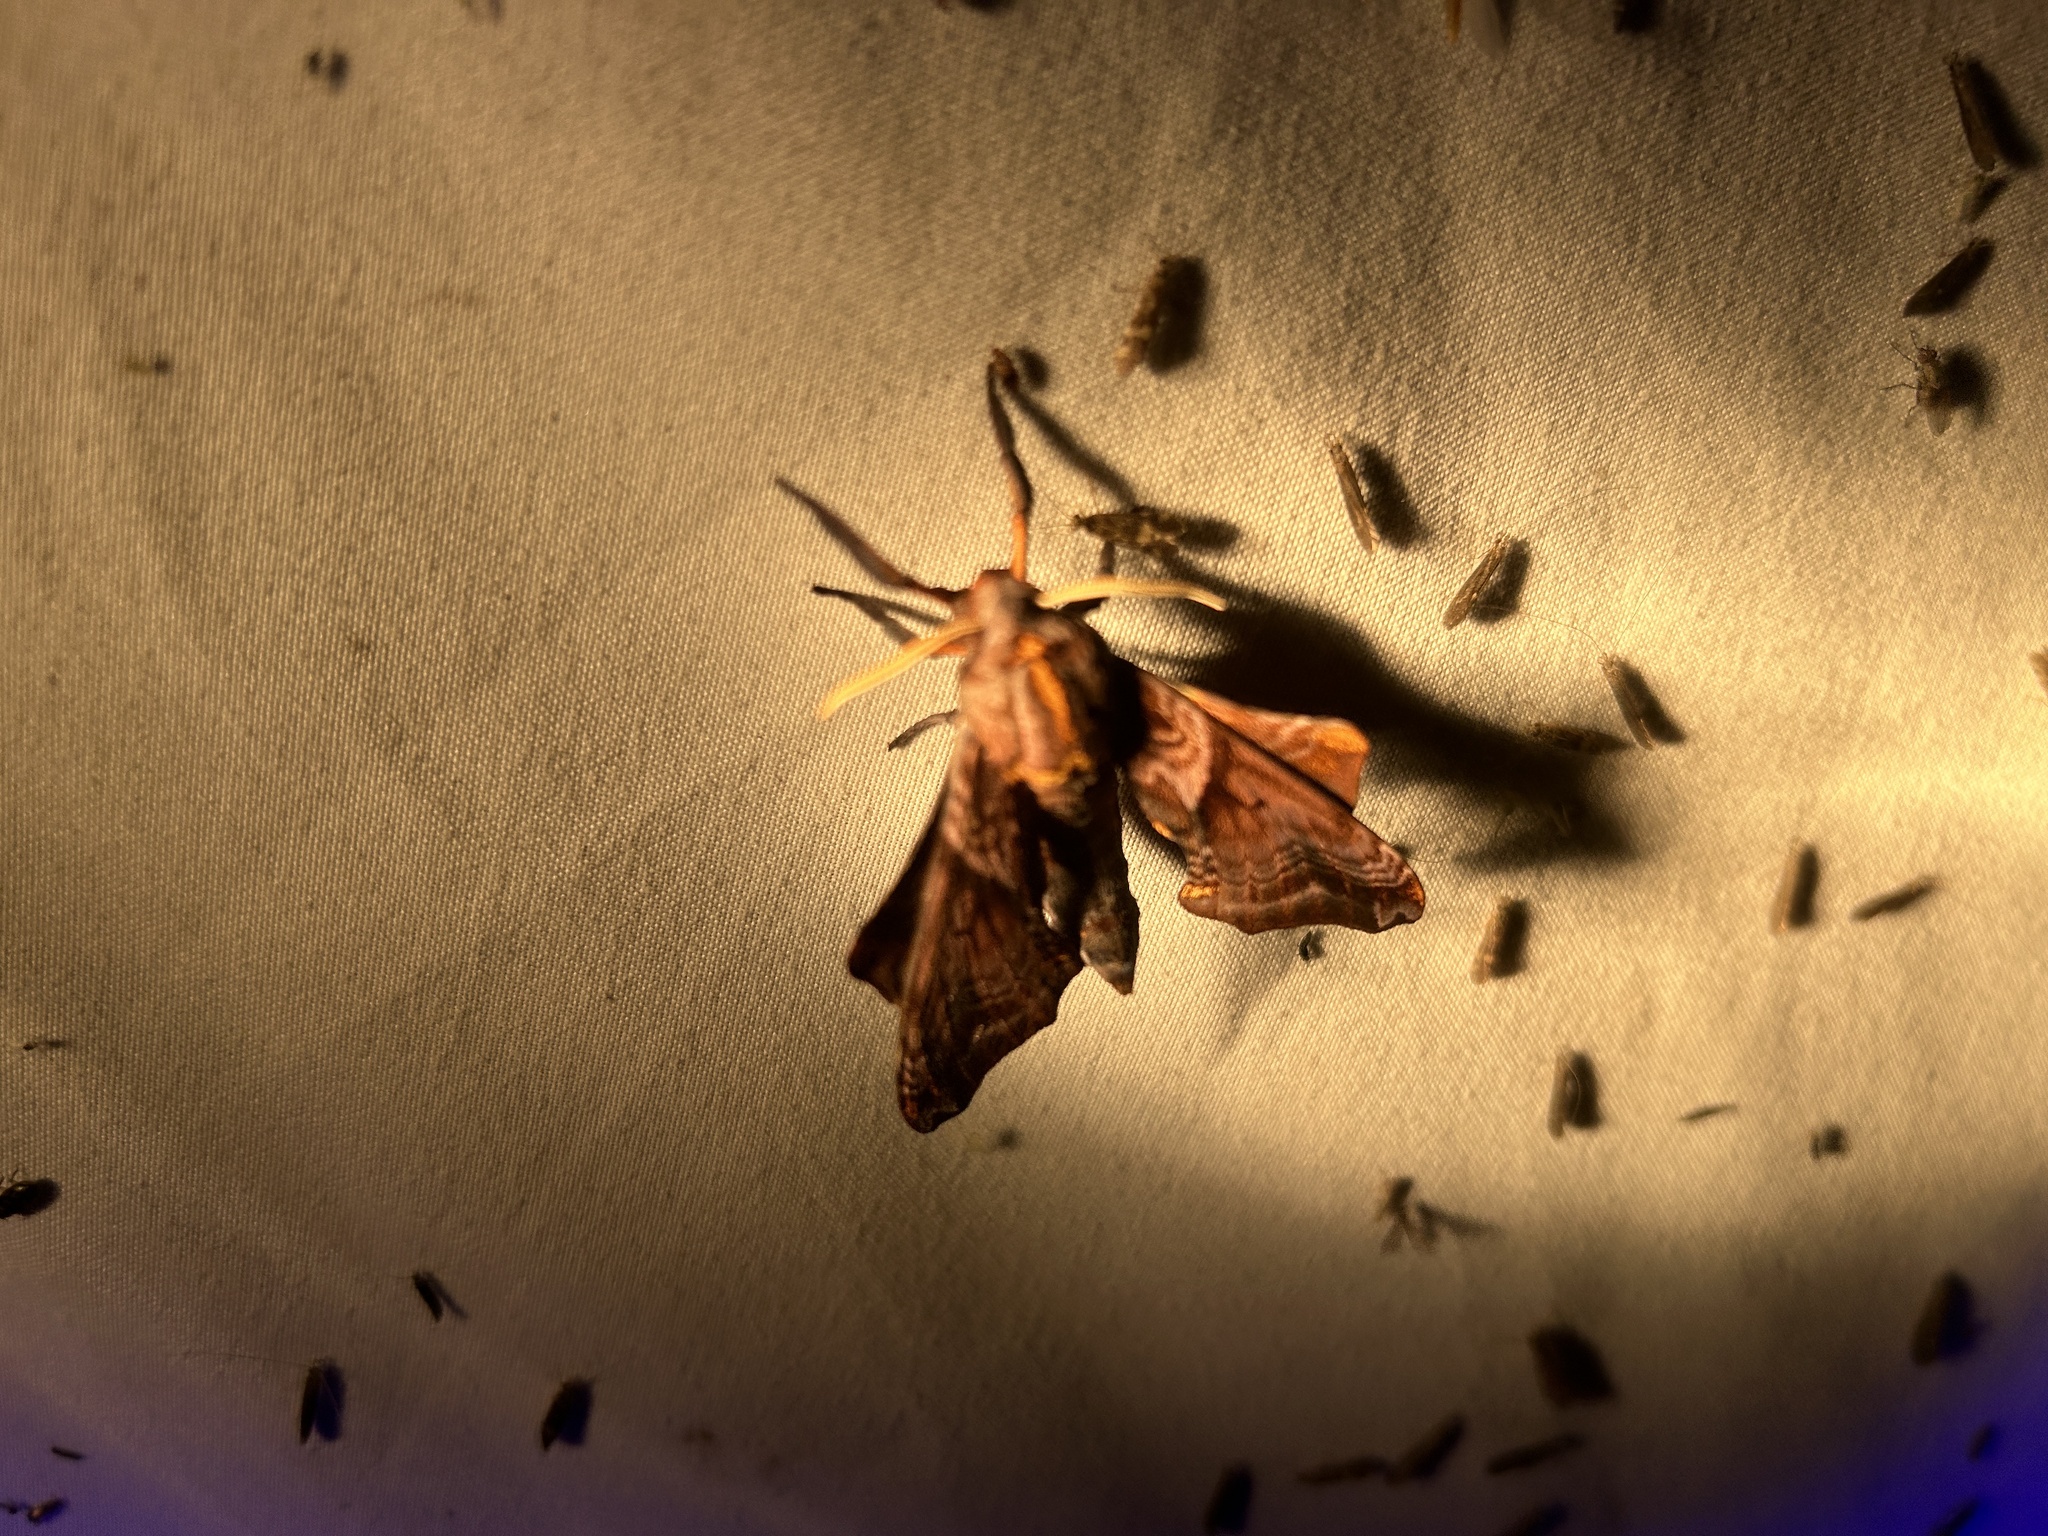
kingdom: Animalia
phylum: Arthropoda
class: Insecta
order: Lepidoptera
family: Sphingidae
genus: Paonias
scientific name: Paonias myops
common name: Small-eyed sphinx
